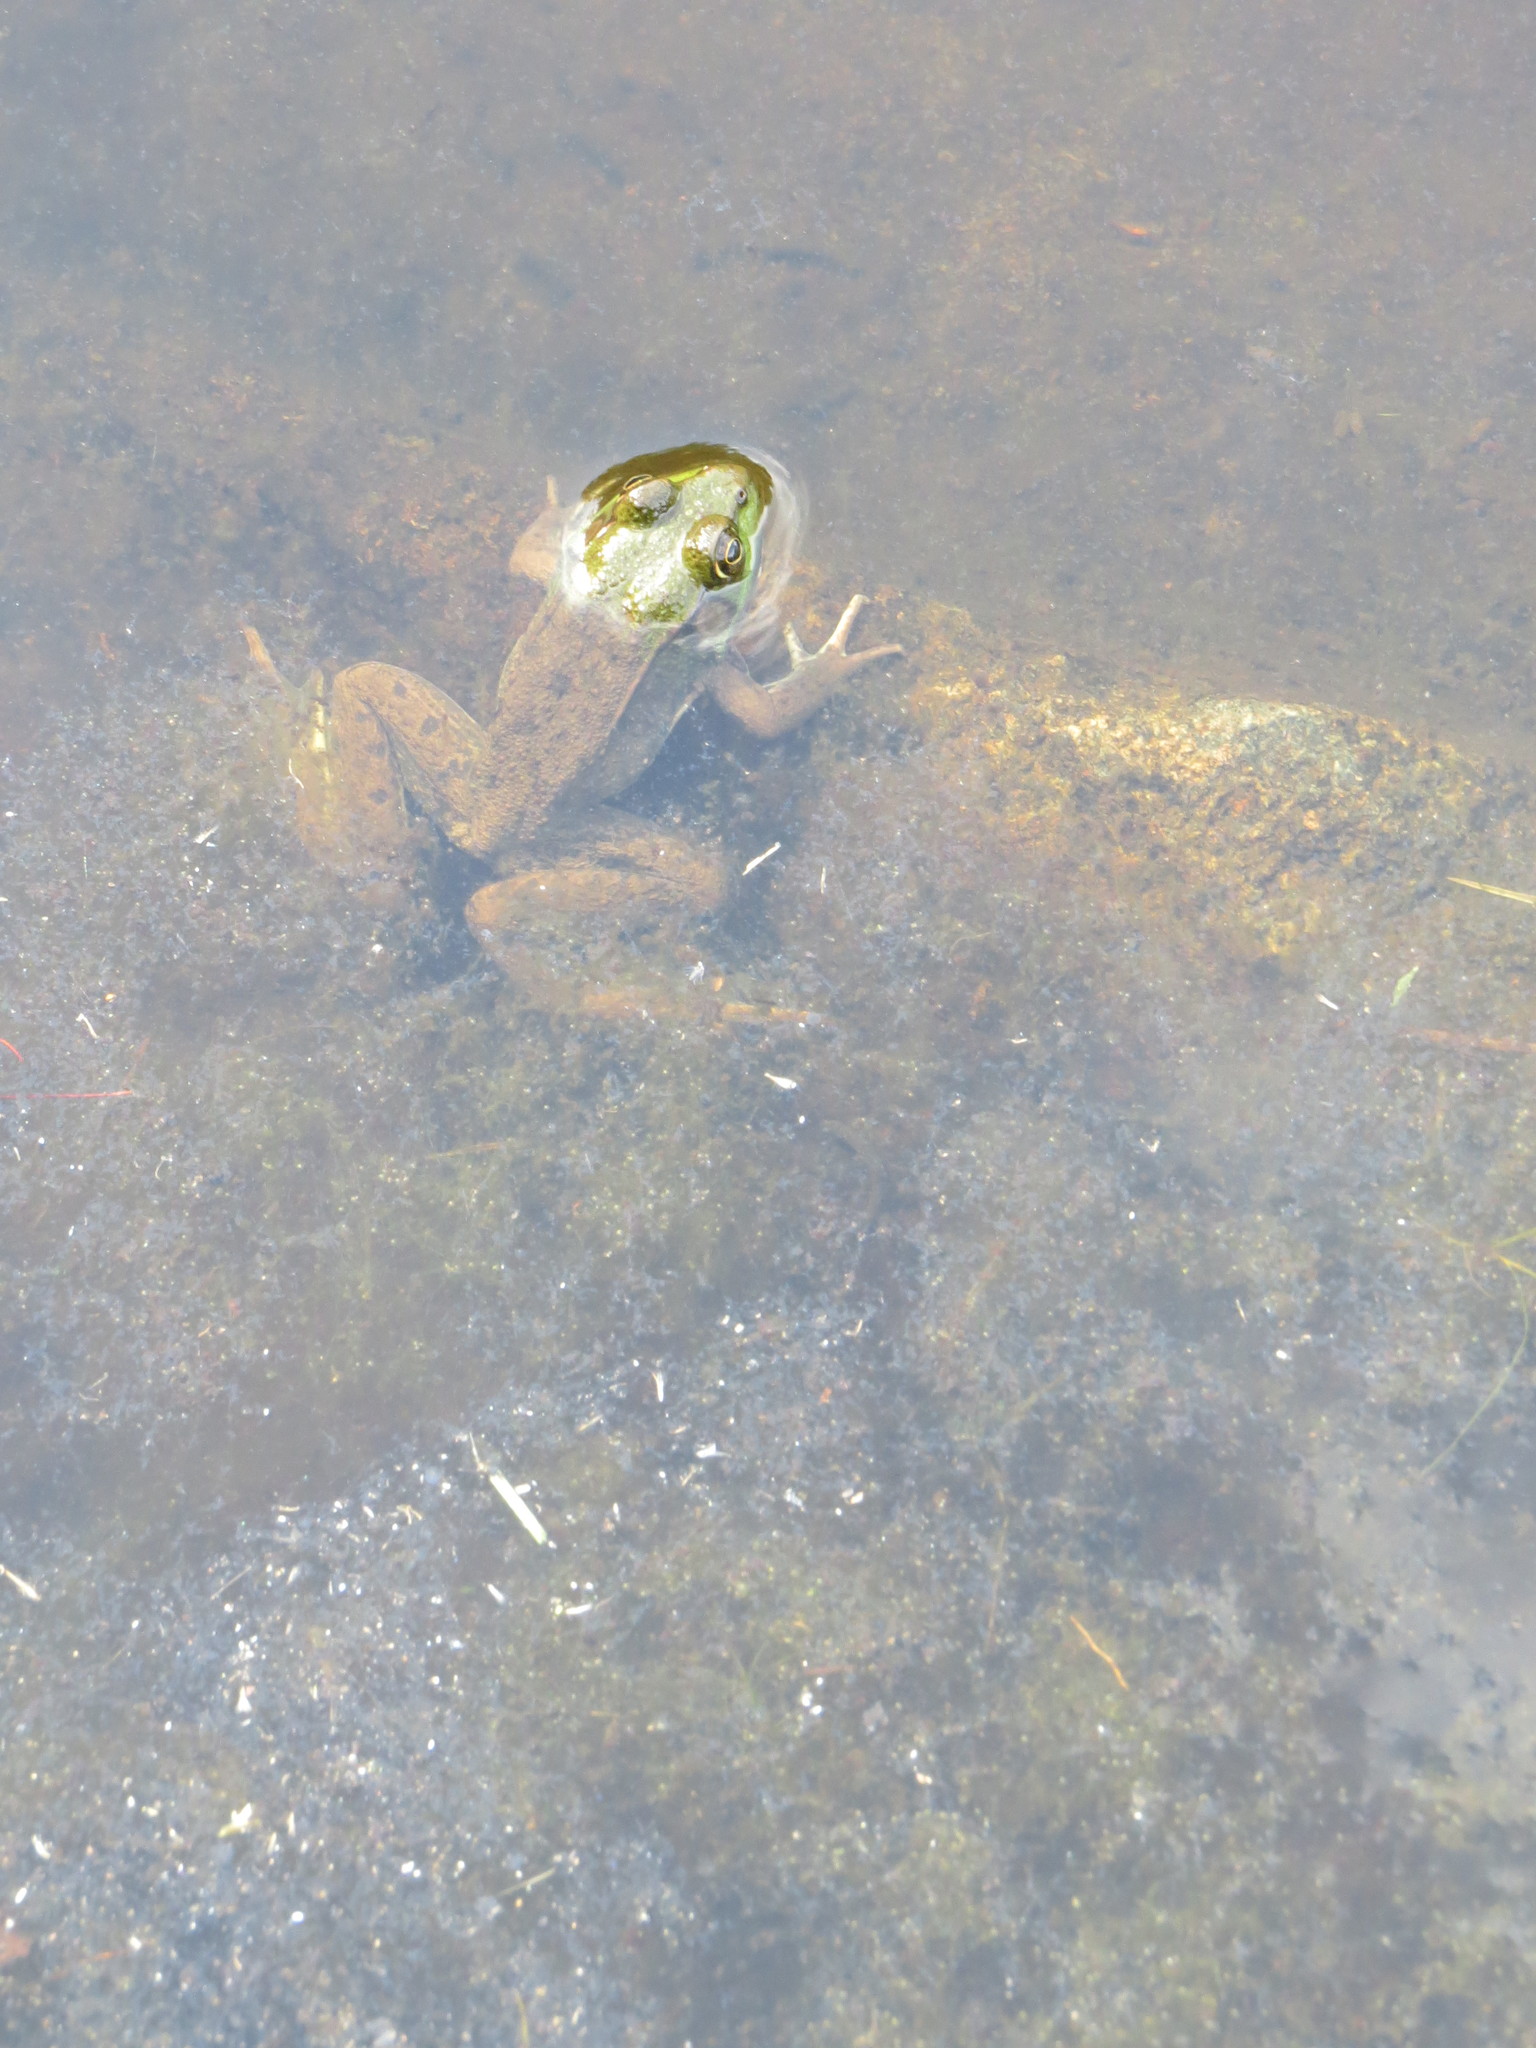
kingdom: Animalia
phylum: Chordata
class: Amphibia
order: Anura
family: Ranidae
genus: Lithobates
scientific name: Lithobates clamitans
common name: Green frog
